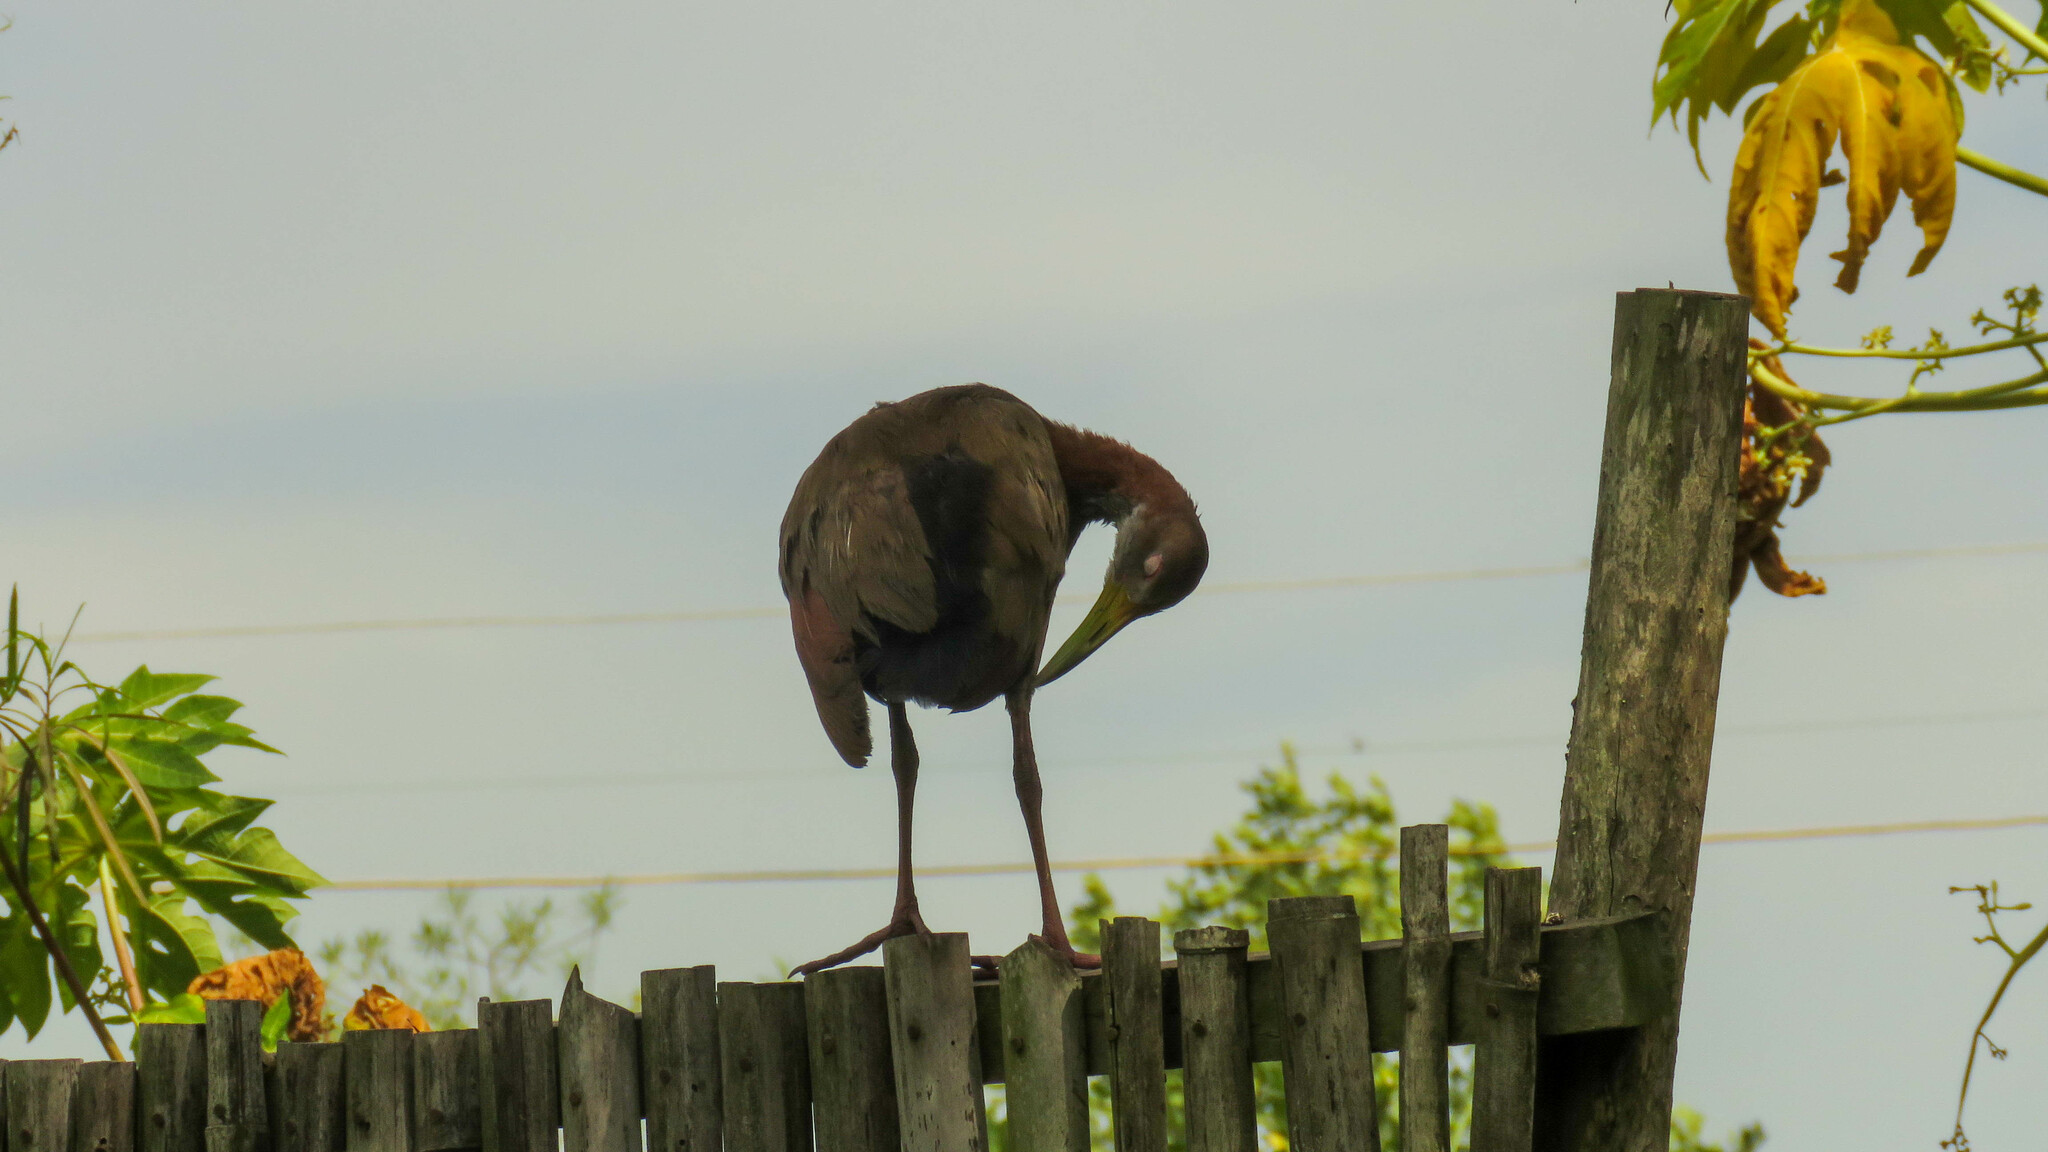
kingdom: Animalia
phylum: Chordata
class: Aves
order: Gruiformes
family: Rallidae
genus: Aramides
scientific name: Aramides ypecaha
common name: Giant wood rail
